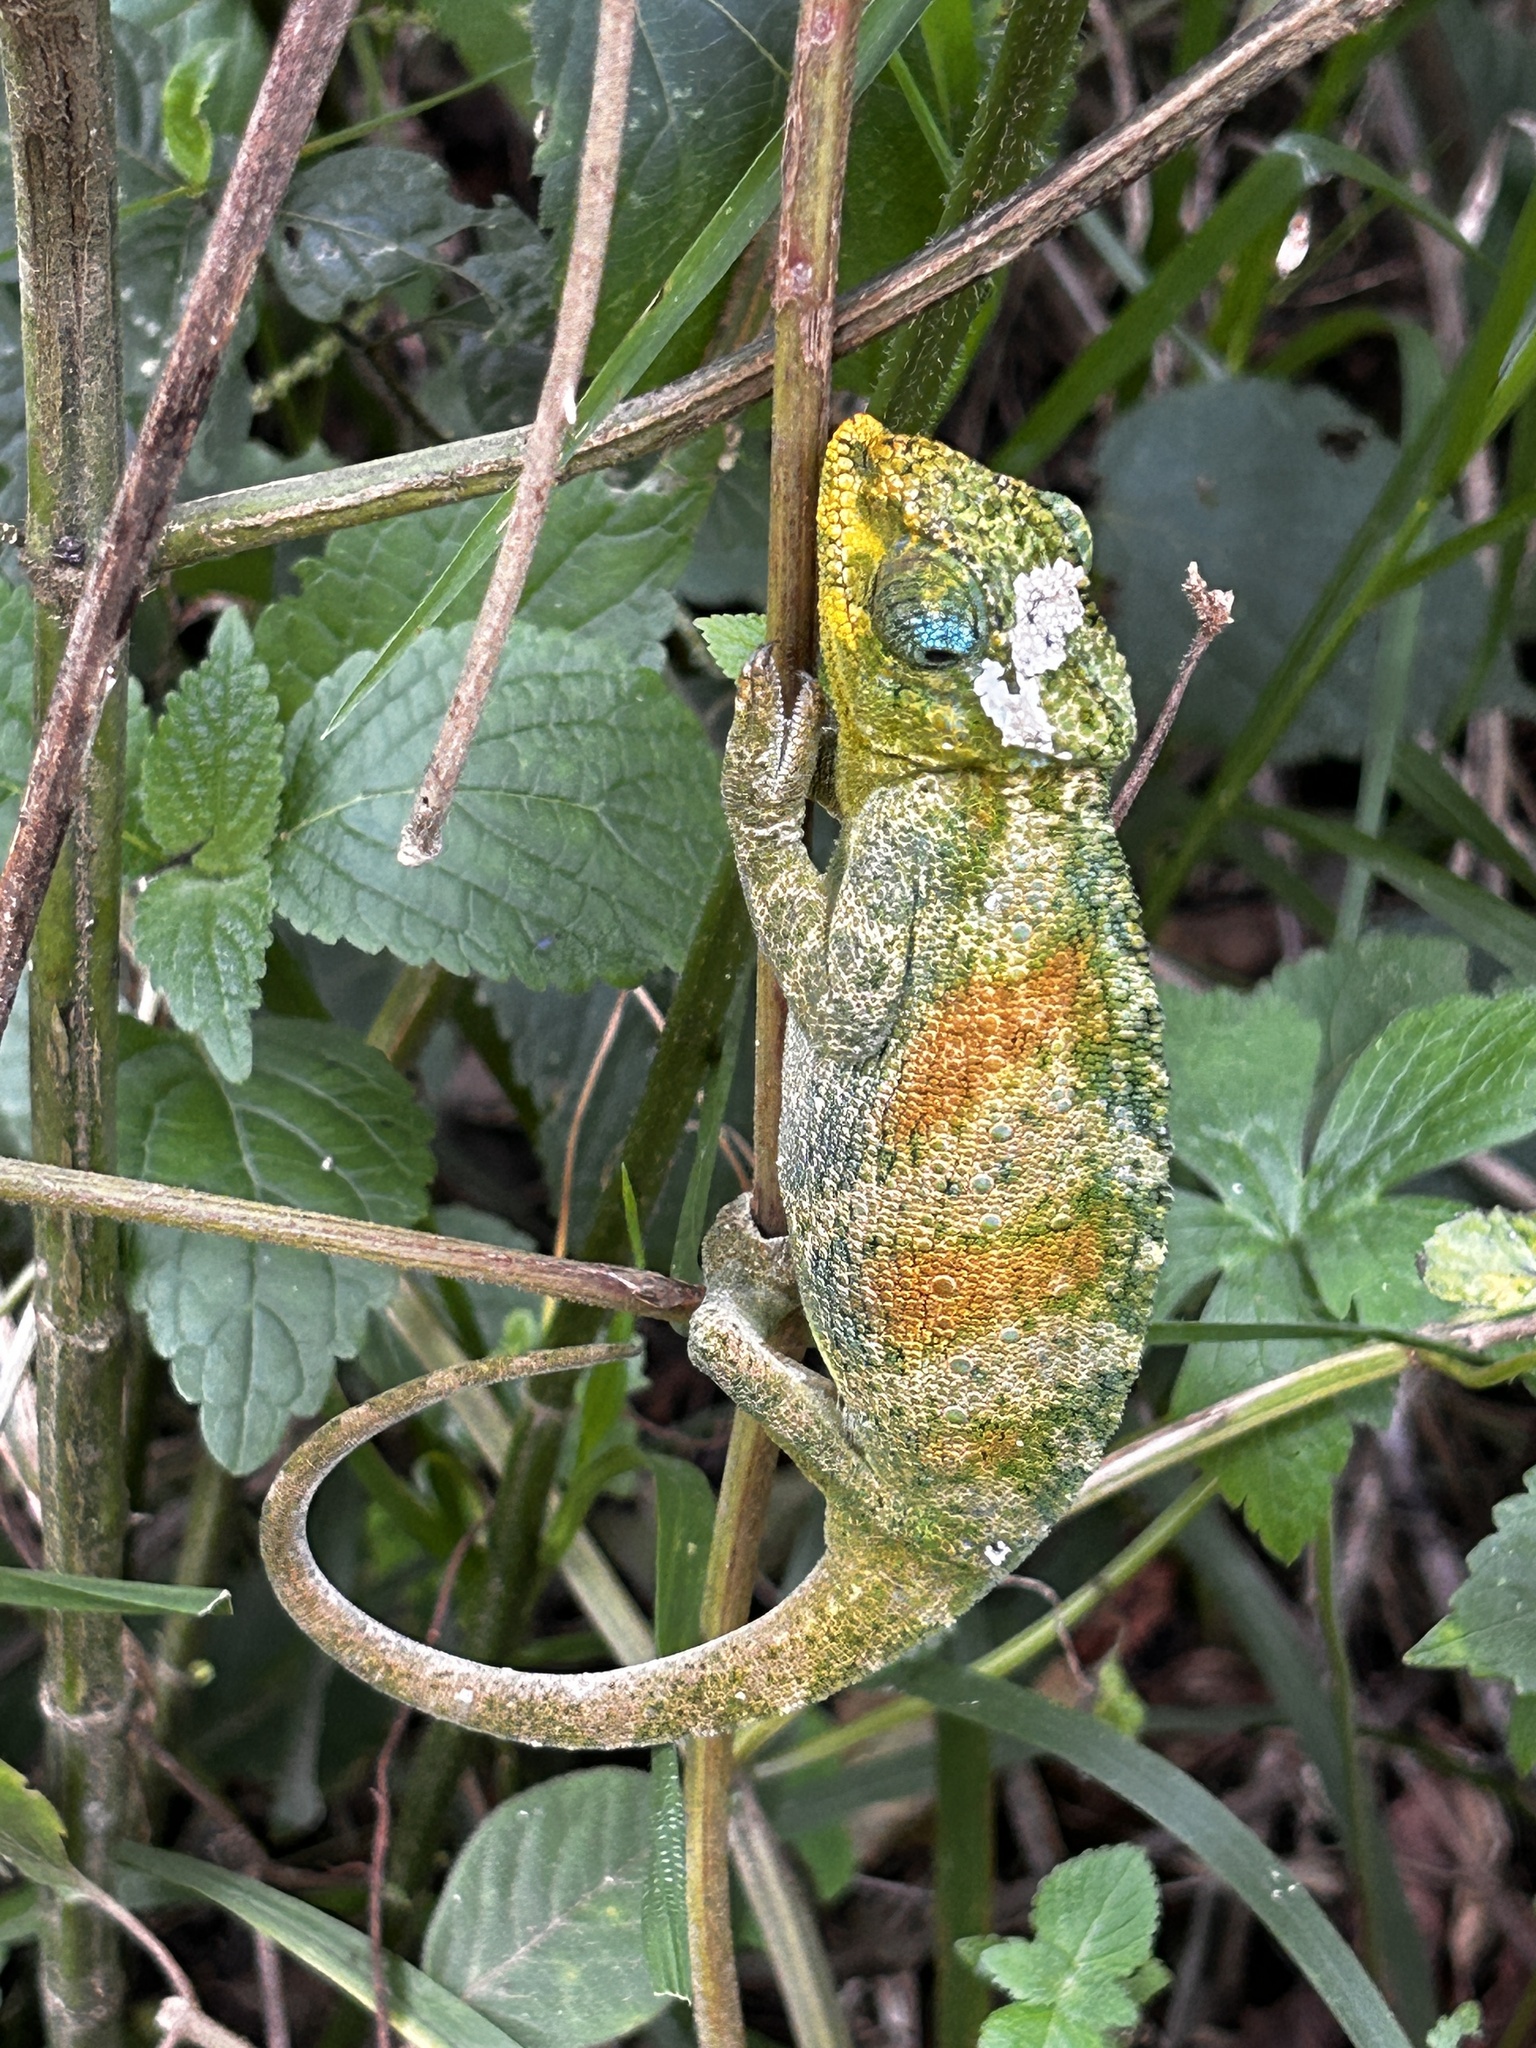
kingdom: Animalia
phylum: Chordata
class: Squamata
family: Chamaeleonidae
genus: Trioceros
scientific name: Trioceros johnstoni
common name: Johnston's chameleon
